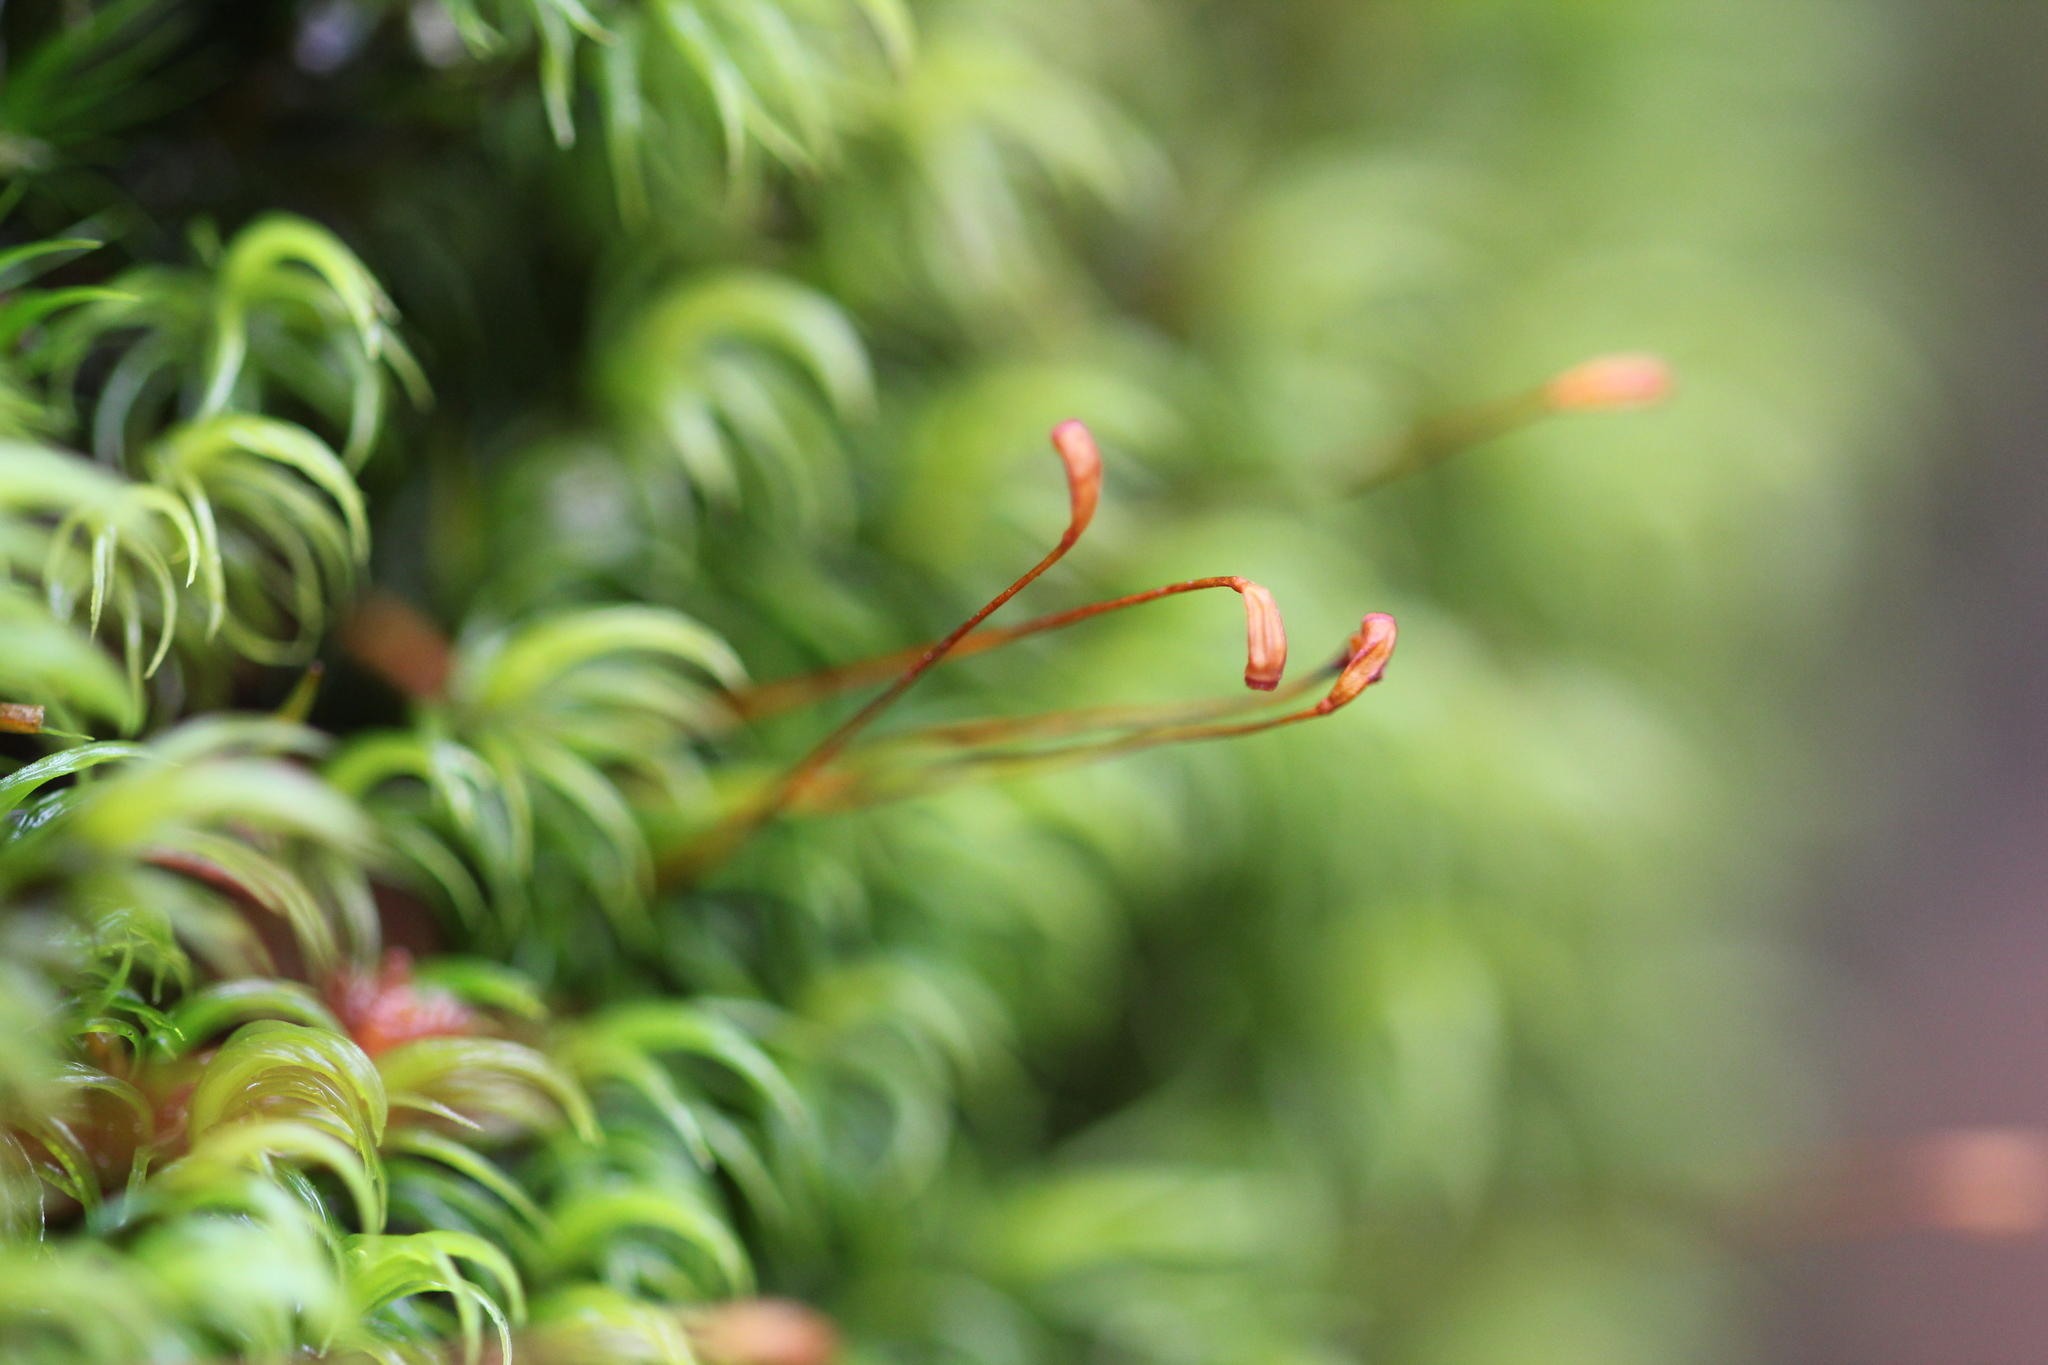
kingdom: Plantae
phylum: Bryophyta
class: Bryopsida
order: Dicranales
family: Dicranaceae
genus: Dicranum
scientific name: Dicranum scoparium
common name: Broom fork-moss
